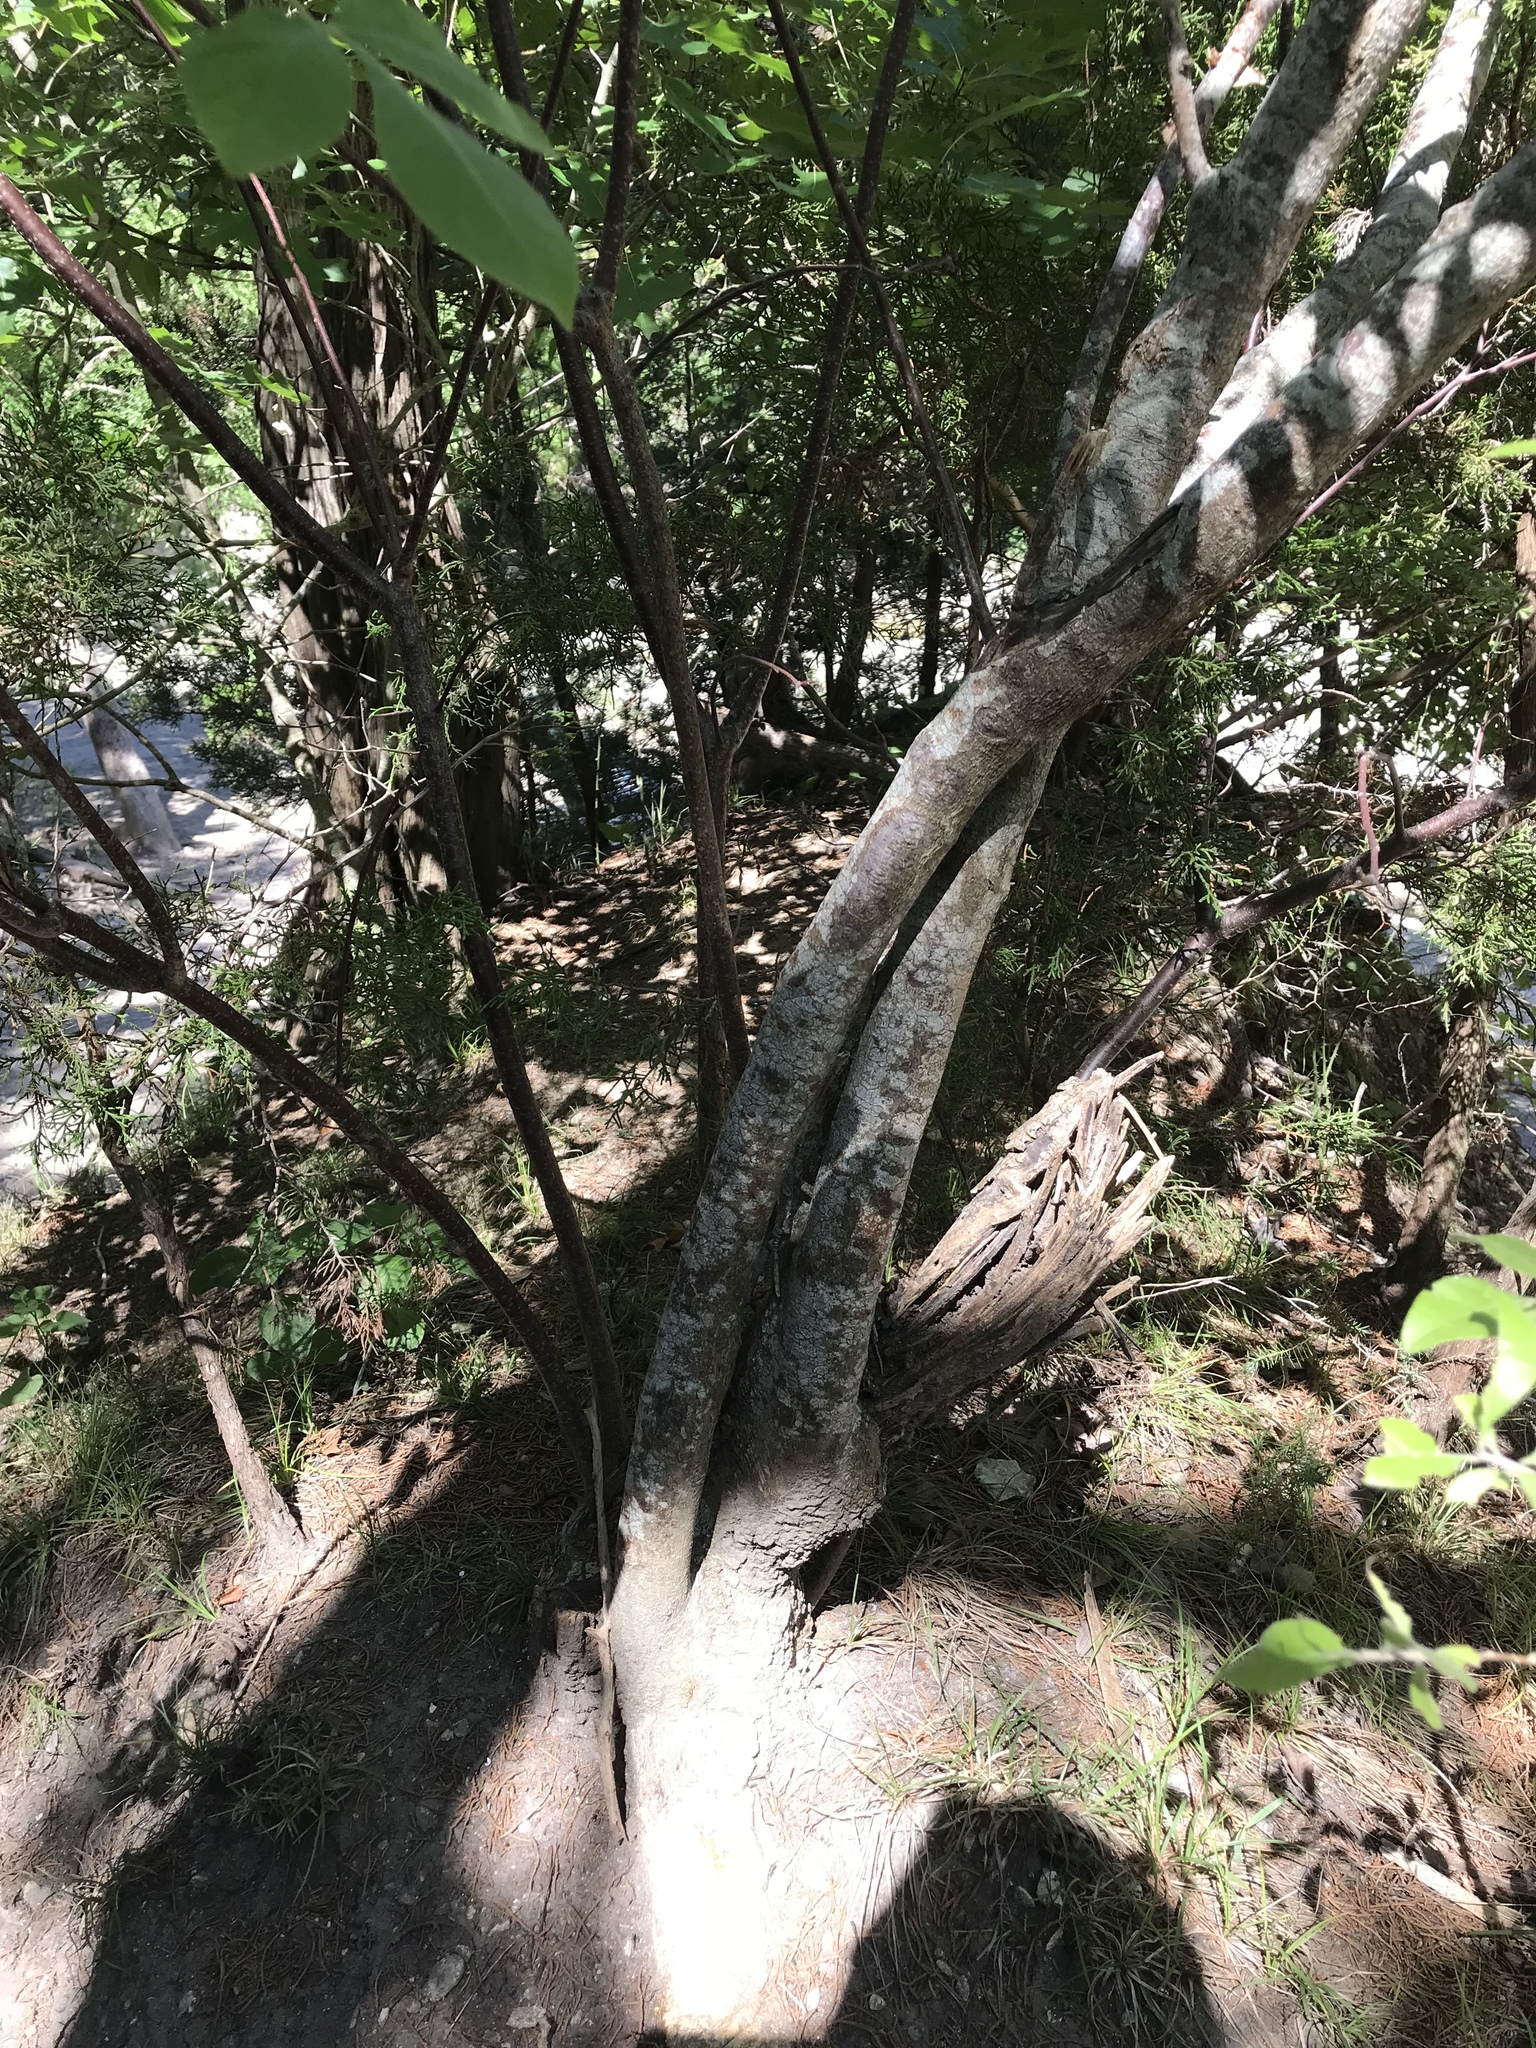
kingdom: Plantae
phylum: Tracheophyta
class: Magnoliopsida
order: Sapindales
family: Rutaceae
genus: Ptelea
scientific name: Ptelea trifoliata
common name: Common hop-tree
